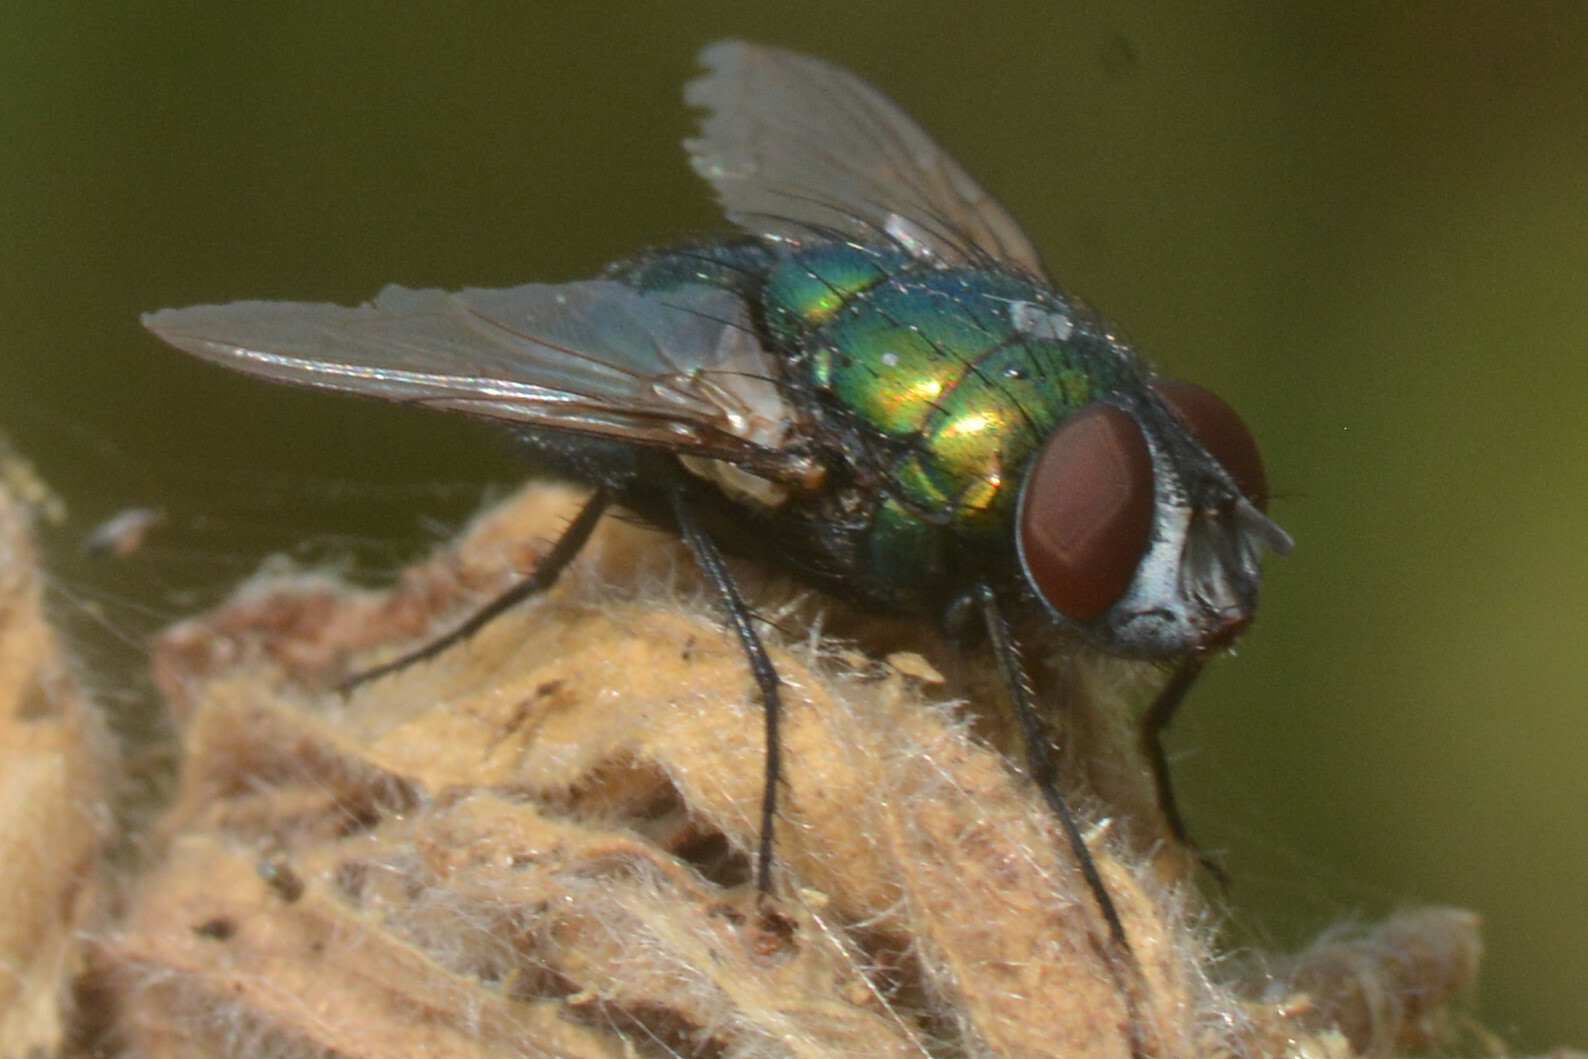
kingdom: Animalia
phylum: Arthropoda
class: Insecta
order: Diptera
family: Calliphoridae
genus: Lucilia
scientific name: Lucilia sericata
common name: Blow fly
